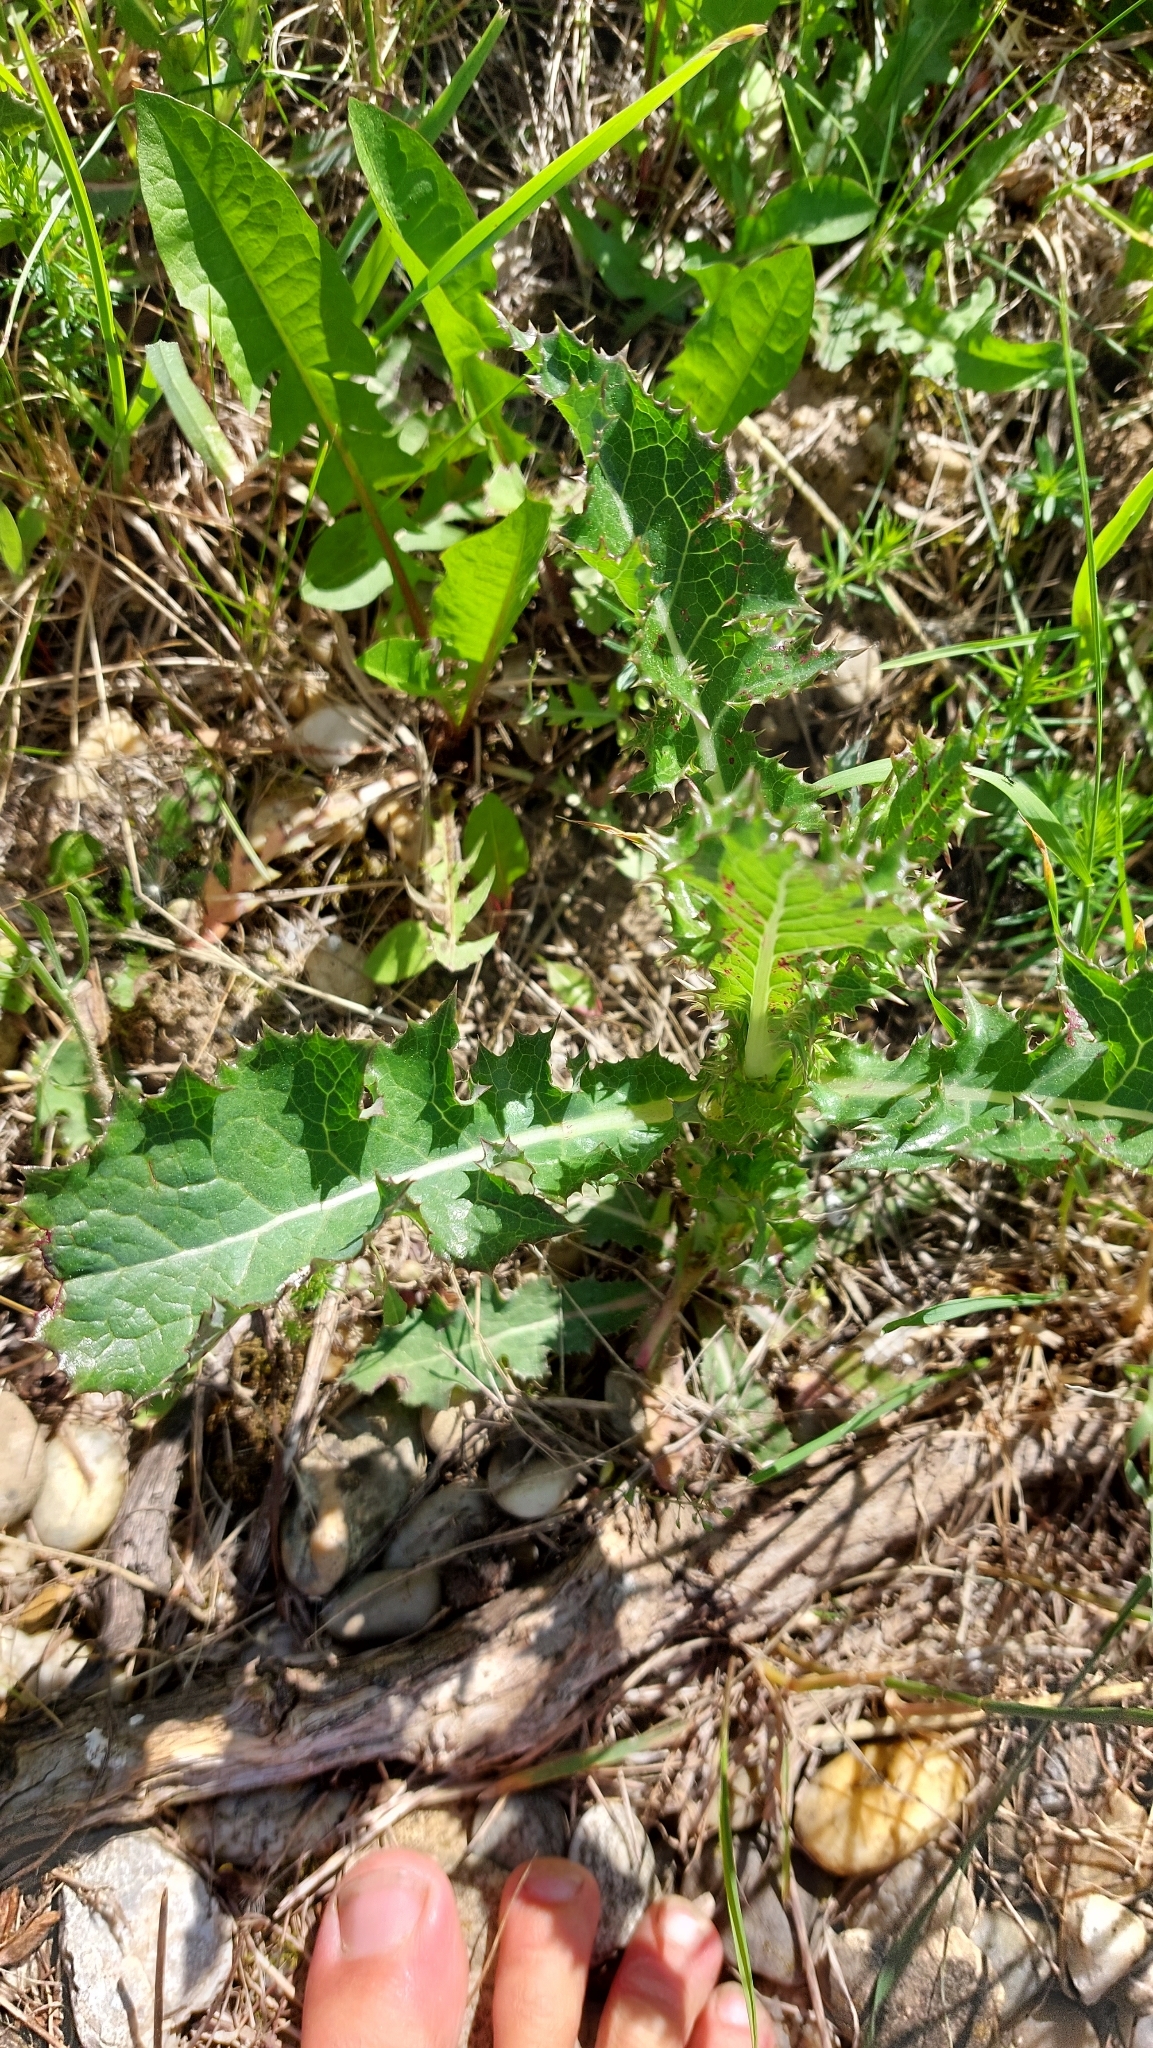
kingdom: Plantae
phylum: Tracheophyta
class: Magnoliopsida
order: Asterales
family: Asteraceae
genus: Sonchus
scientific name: Sonchus asper
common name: Prickly sow-thistle
